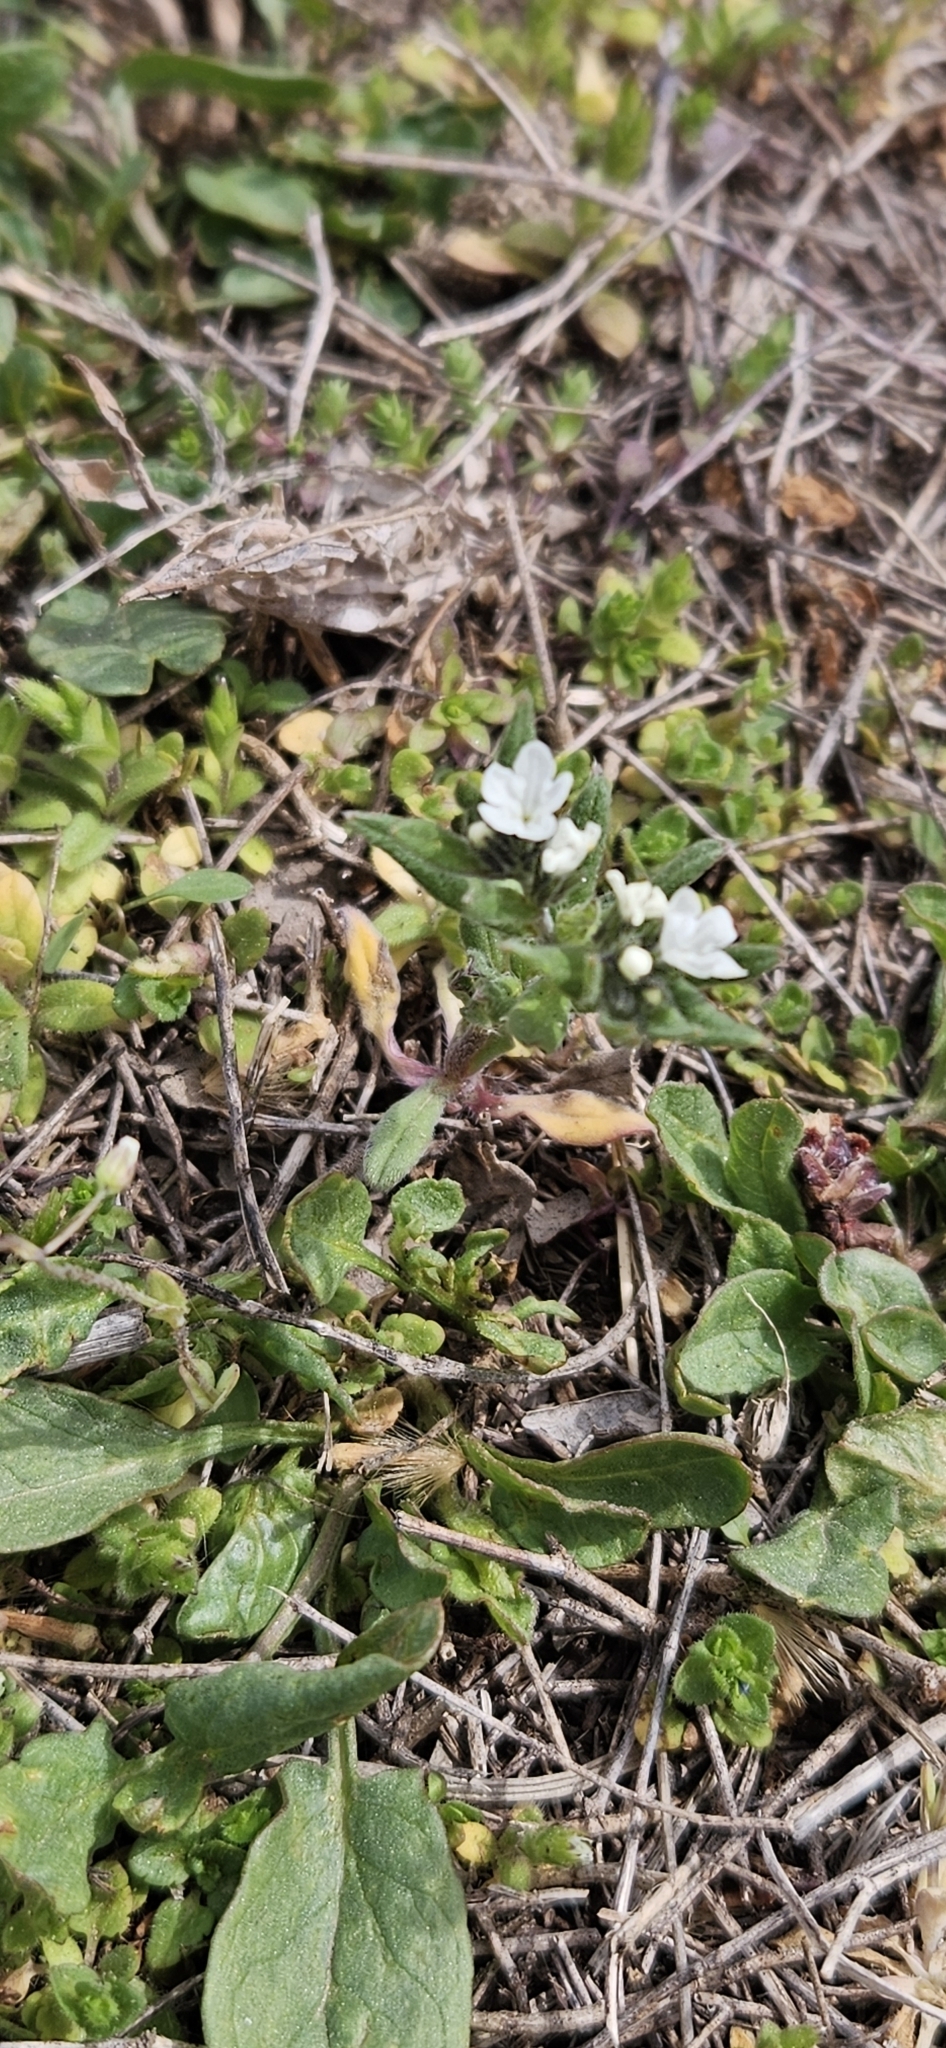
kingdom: Plantae
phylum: Tracheophyta
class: Magnoliopsida
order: Boraginales
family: Boraginaceae
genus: Buglossoides
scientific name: Buglossoides arvensis
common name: Corn gromwell
